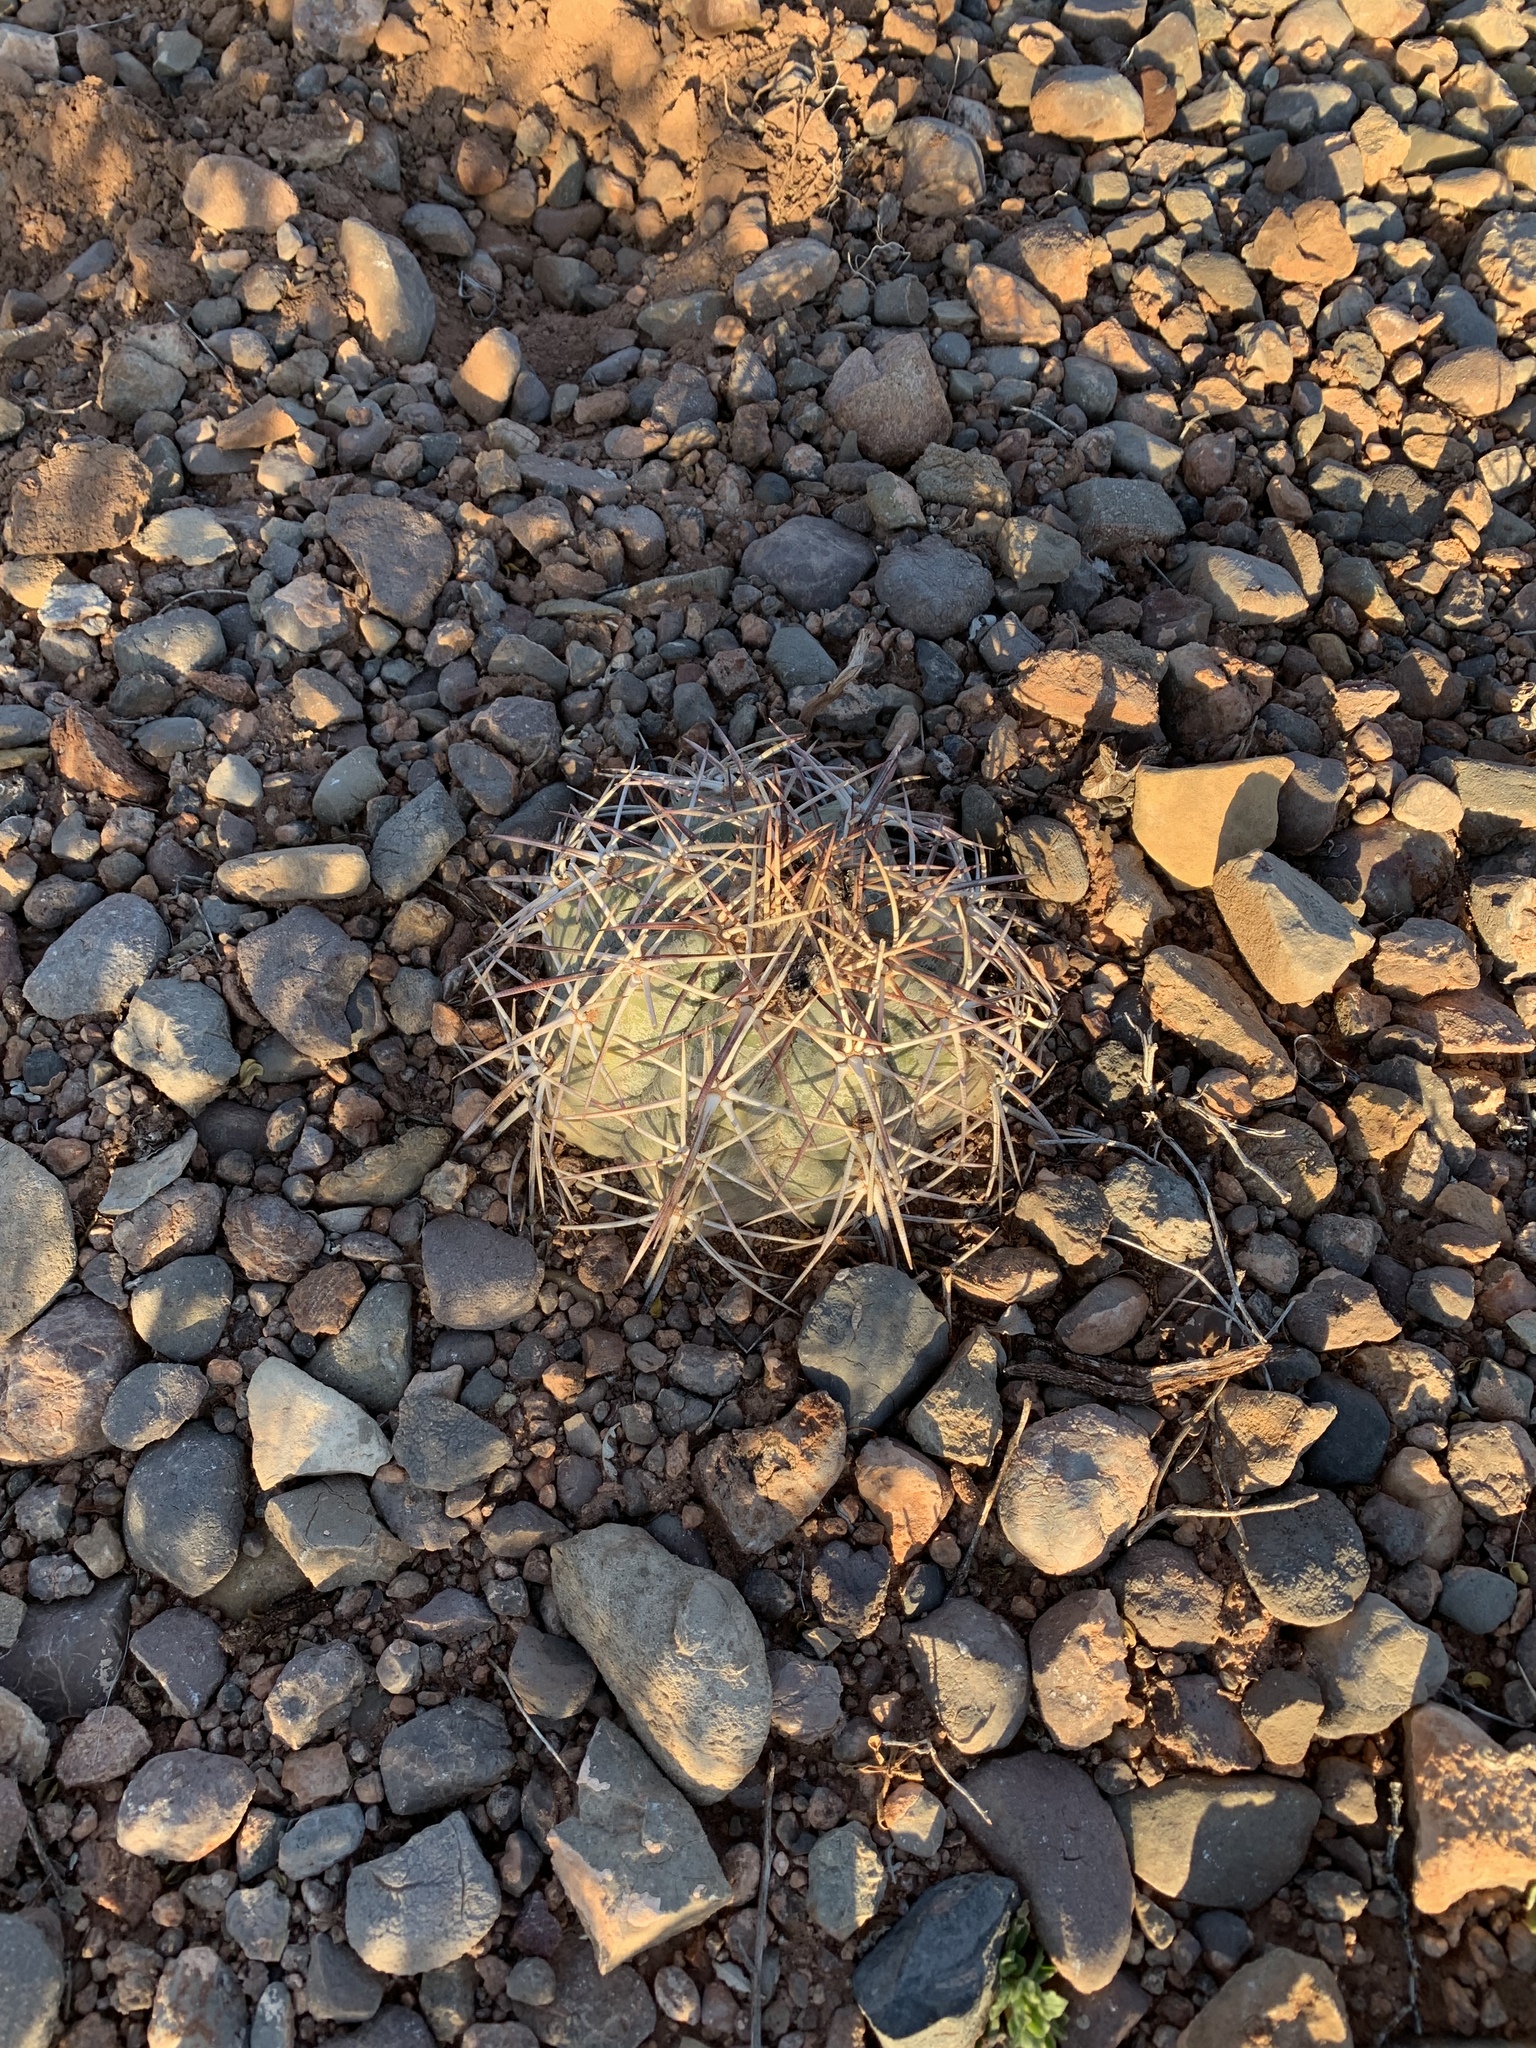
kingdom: Plantae
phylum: Tracheophyta
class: Magnoliopsida
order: Caryophyllales
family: Cactaceae
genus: Echinocactus
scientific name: Echinocactus horizonthalonius
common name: Devilshead
